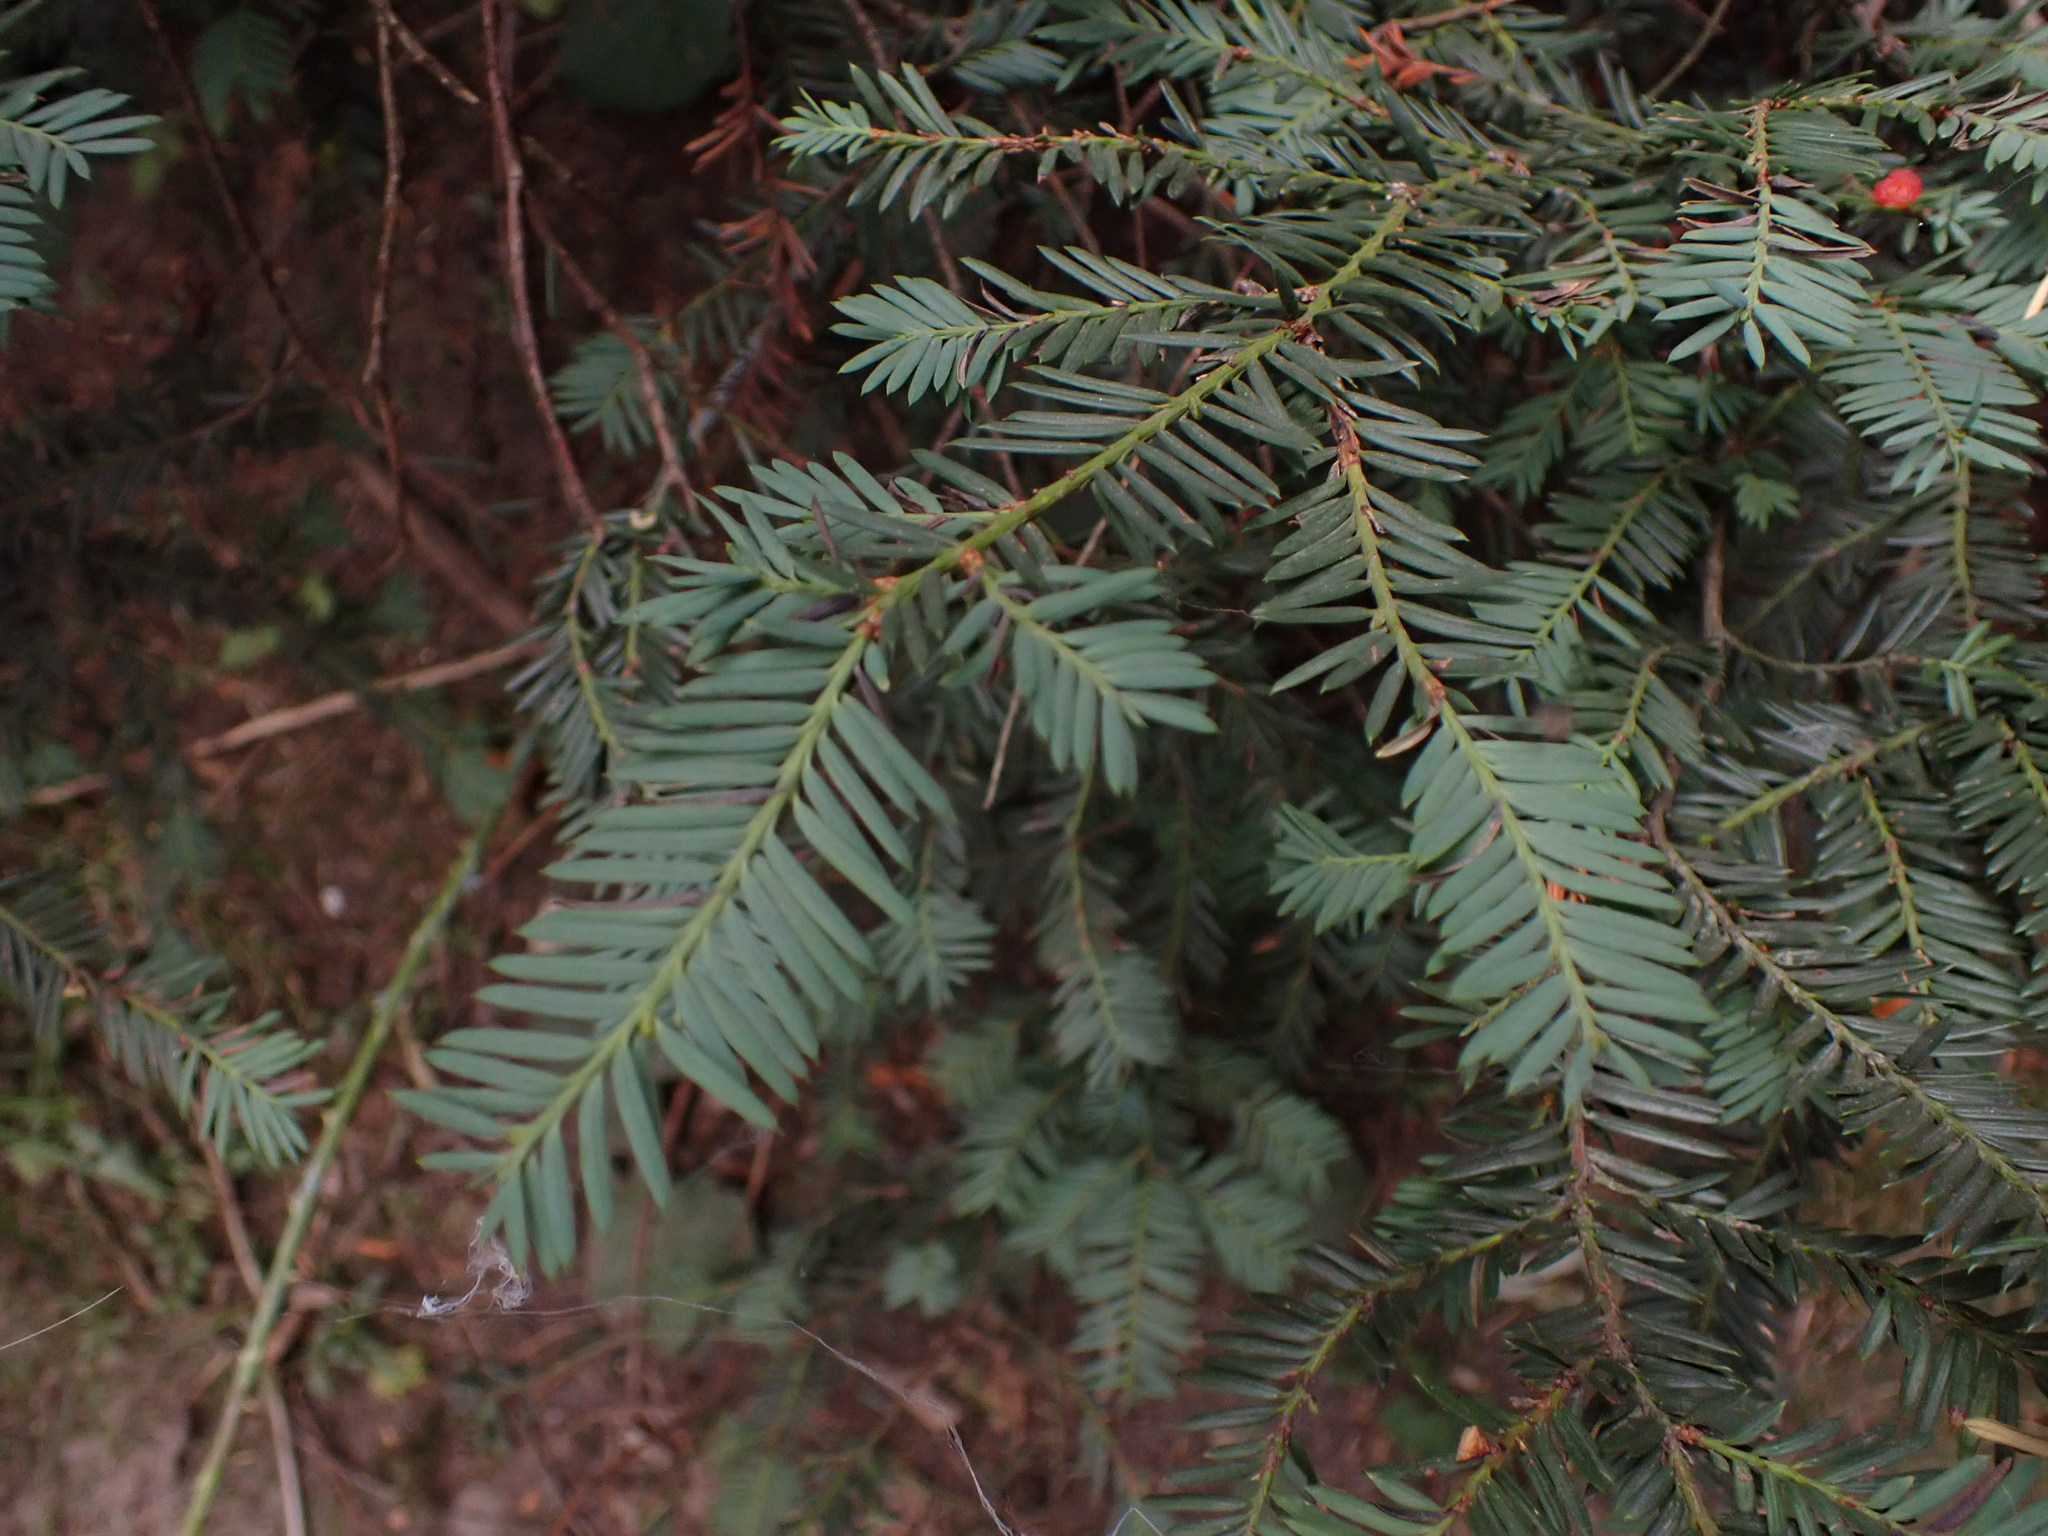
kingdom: Plantae
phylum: Tracheophyta
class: Pinopsida
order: Pinales
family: Taxaceae
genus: Taxus
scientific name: Taxus brevifolia
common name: Pacific yew
